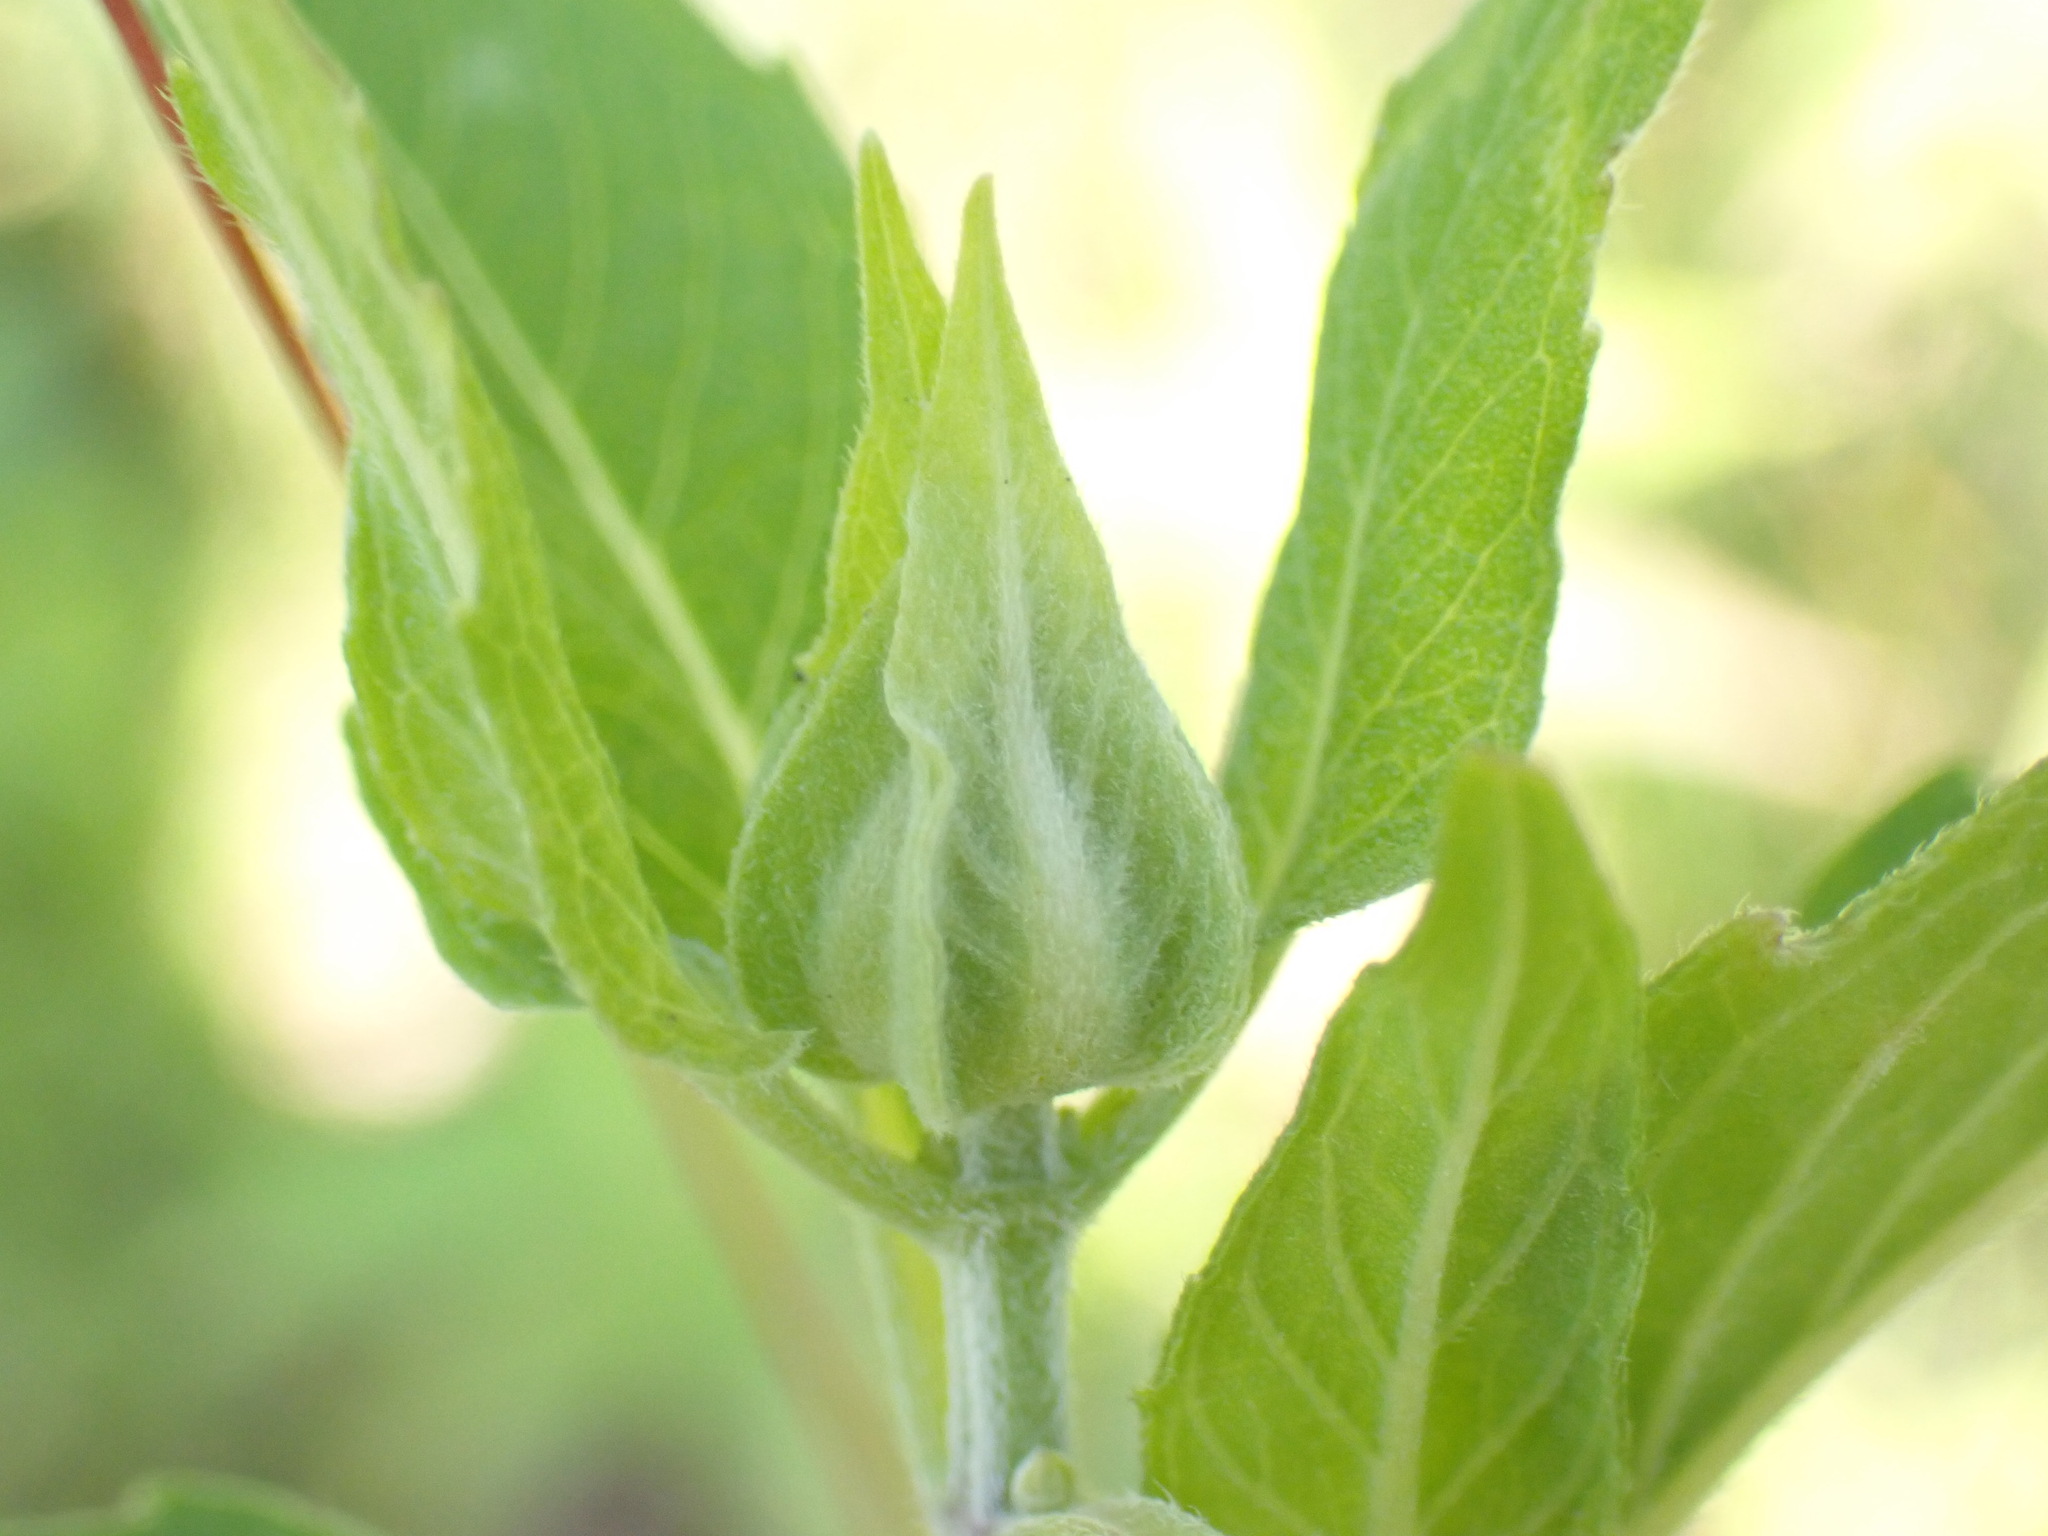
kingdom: Plantae
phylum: Tracheophyta
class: Magnoliopsida
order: Lamiales
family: Lamiaceae
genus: Monarda
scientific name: Monarda fistulosa
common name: Purple beebalm
